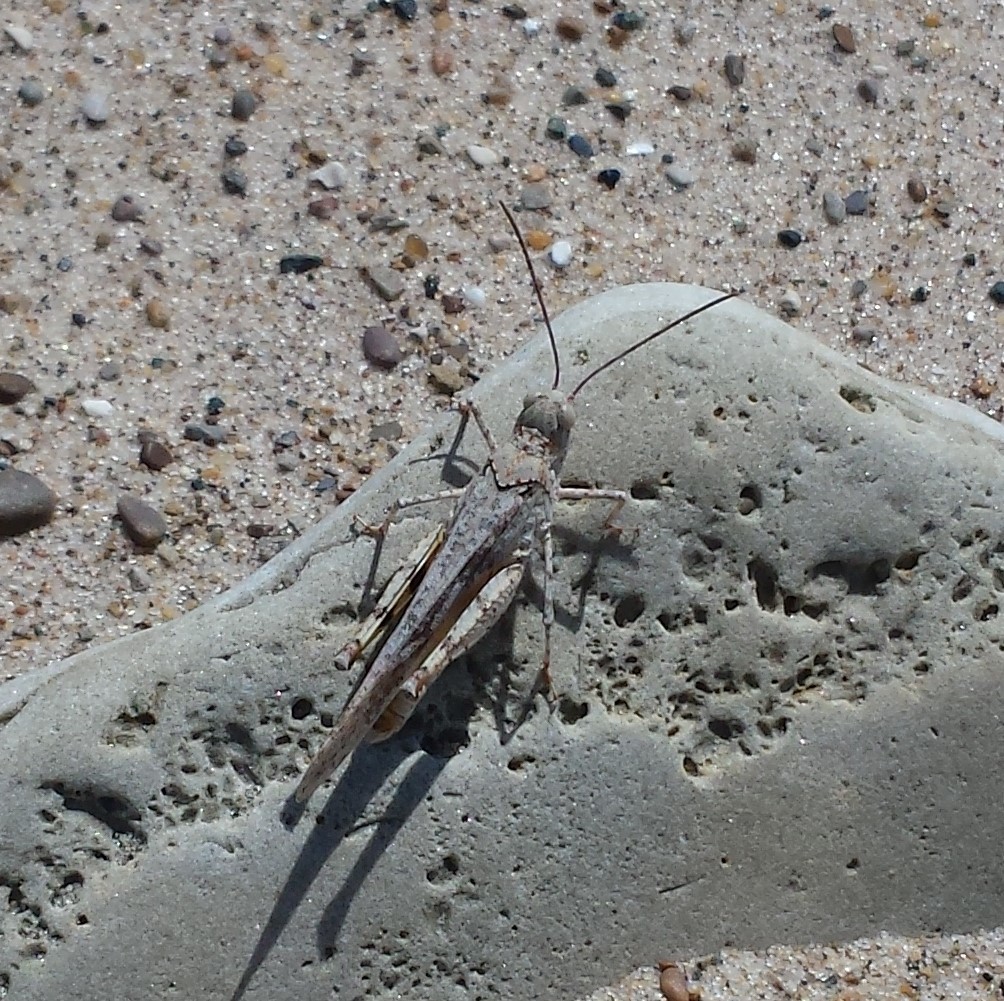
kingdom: Animalia
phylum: Arthropoda
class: Insecta
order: Orthoptera
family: Acrididae
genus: Trimerotropis
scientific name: Trimerotropis maritima
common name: Seaside locust
